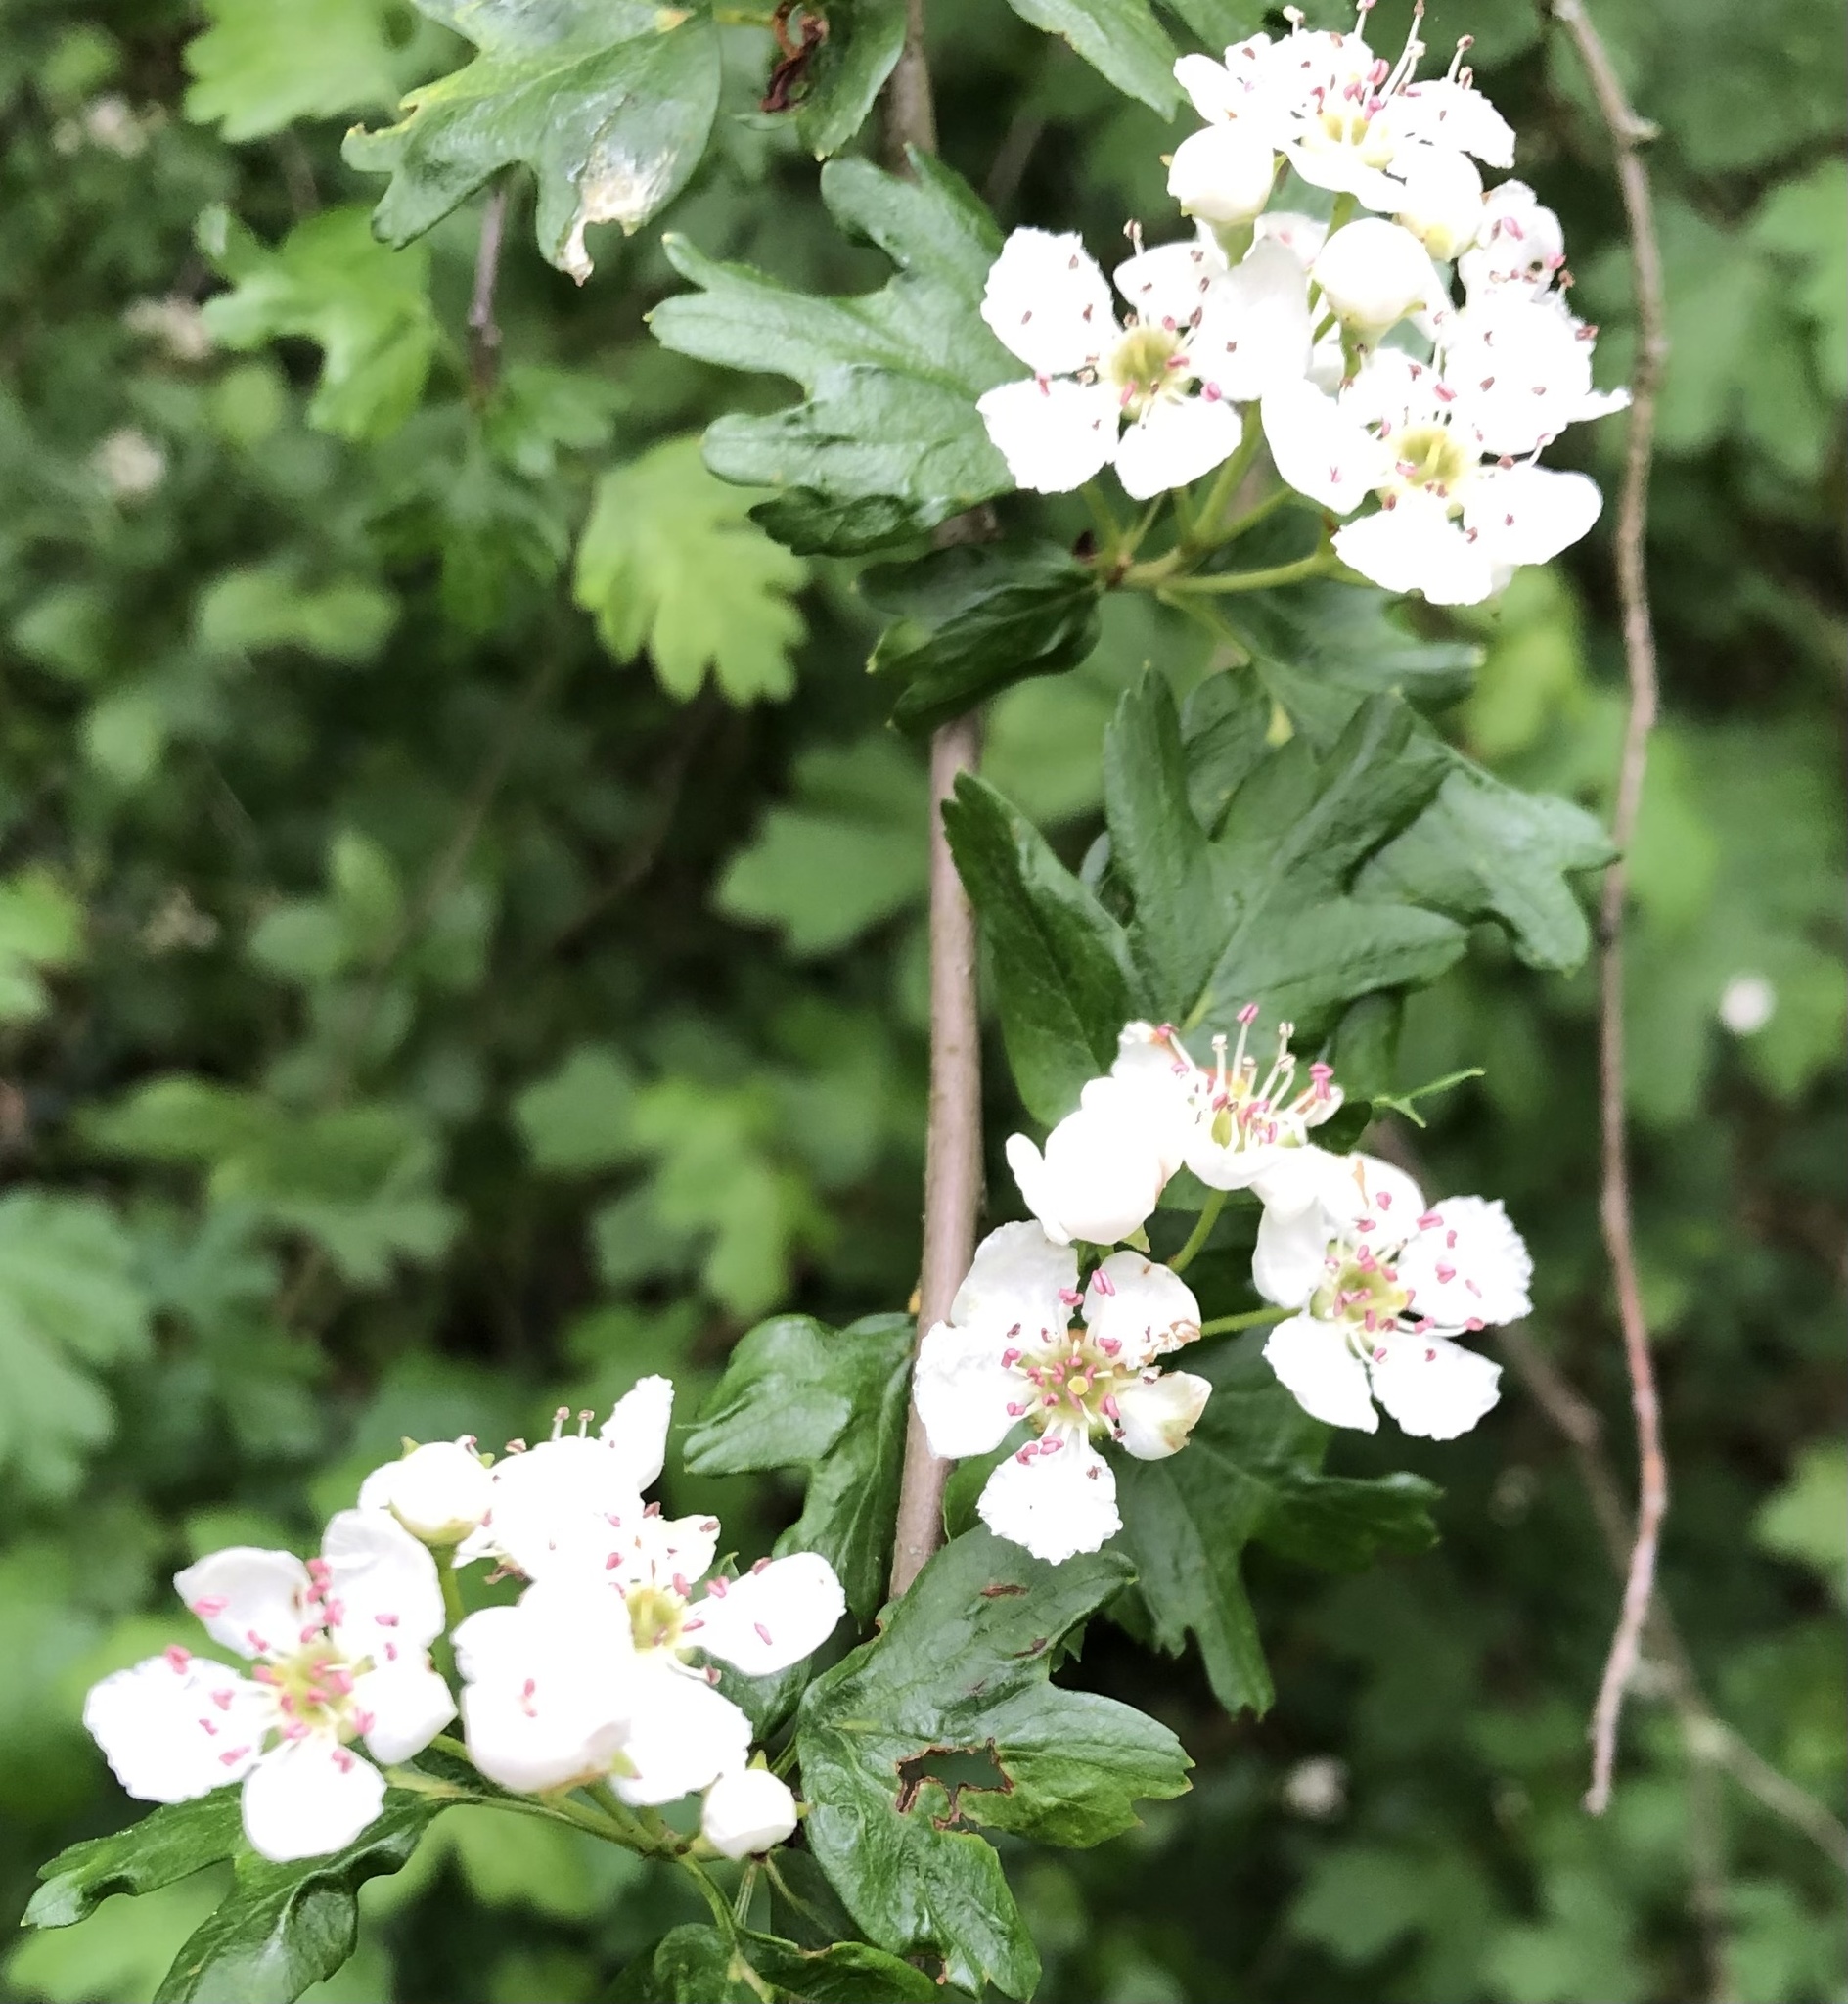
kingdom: Plantae
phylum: Tracheophyta
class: Magnoliopsida
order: Rosales
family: Rosaceae
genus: Crataegus
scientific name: Crataegus monogyna
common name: Hawthorn
